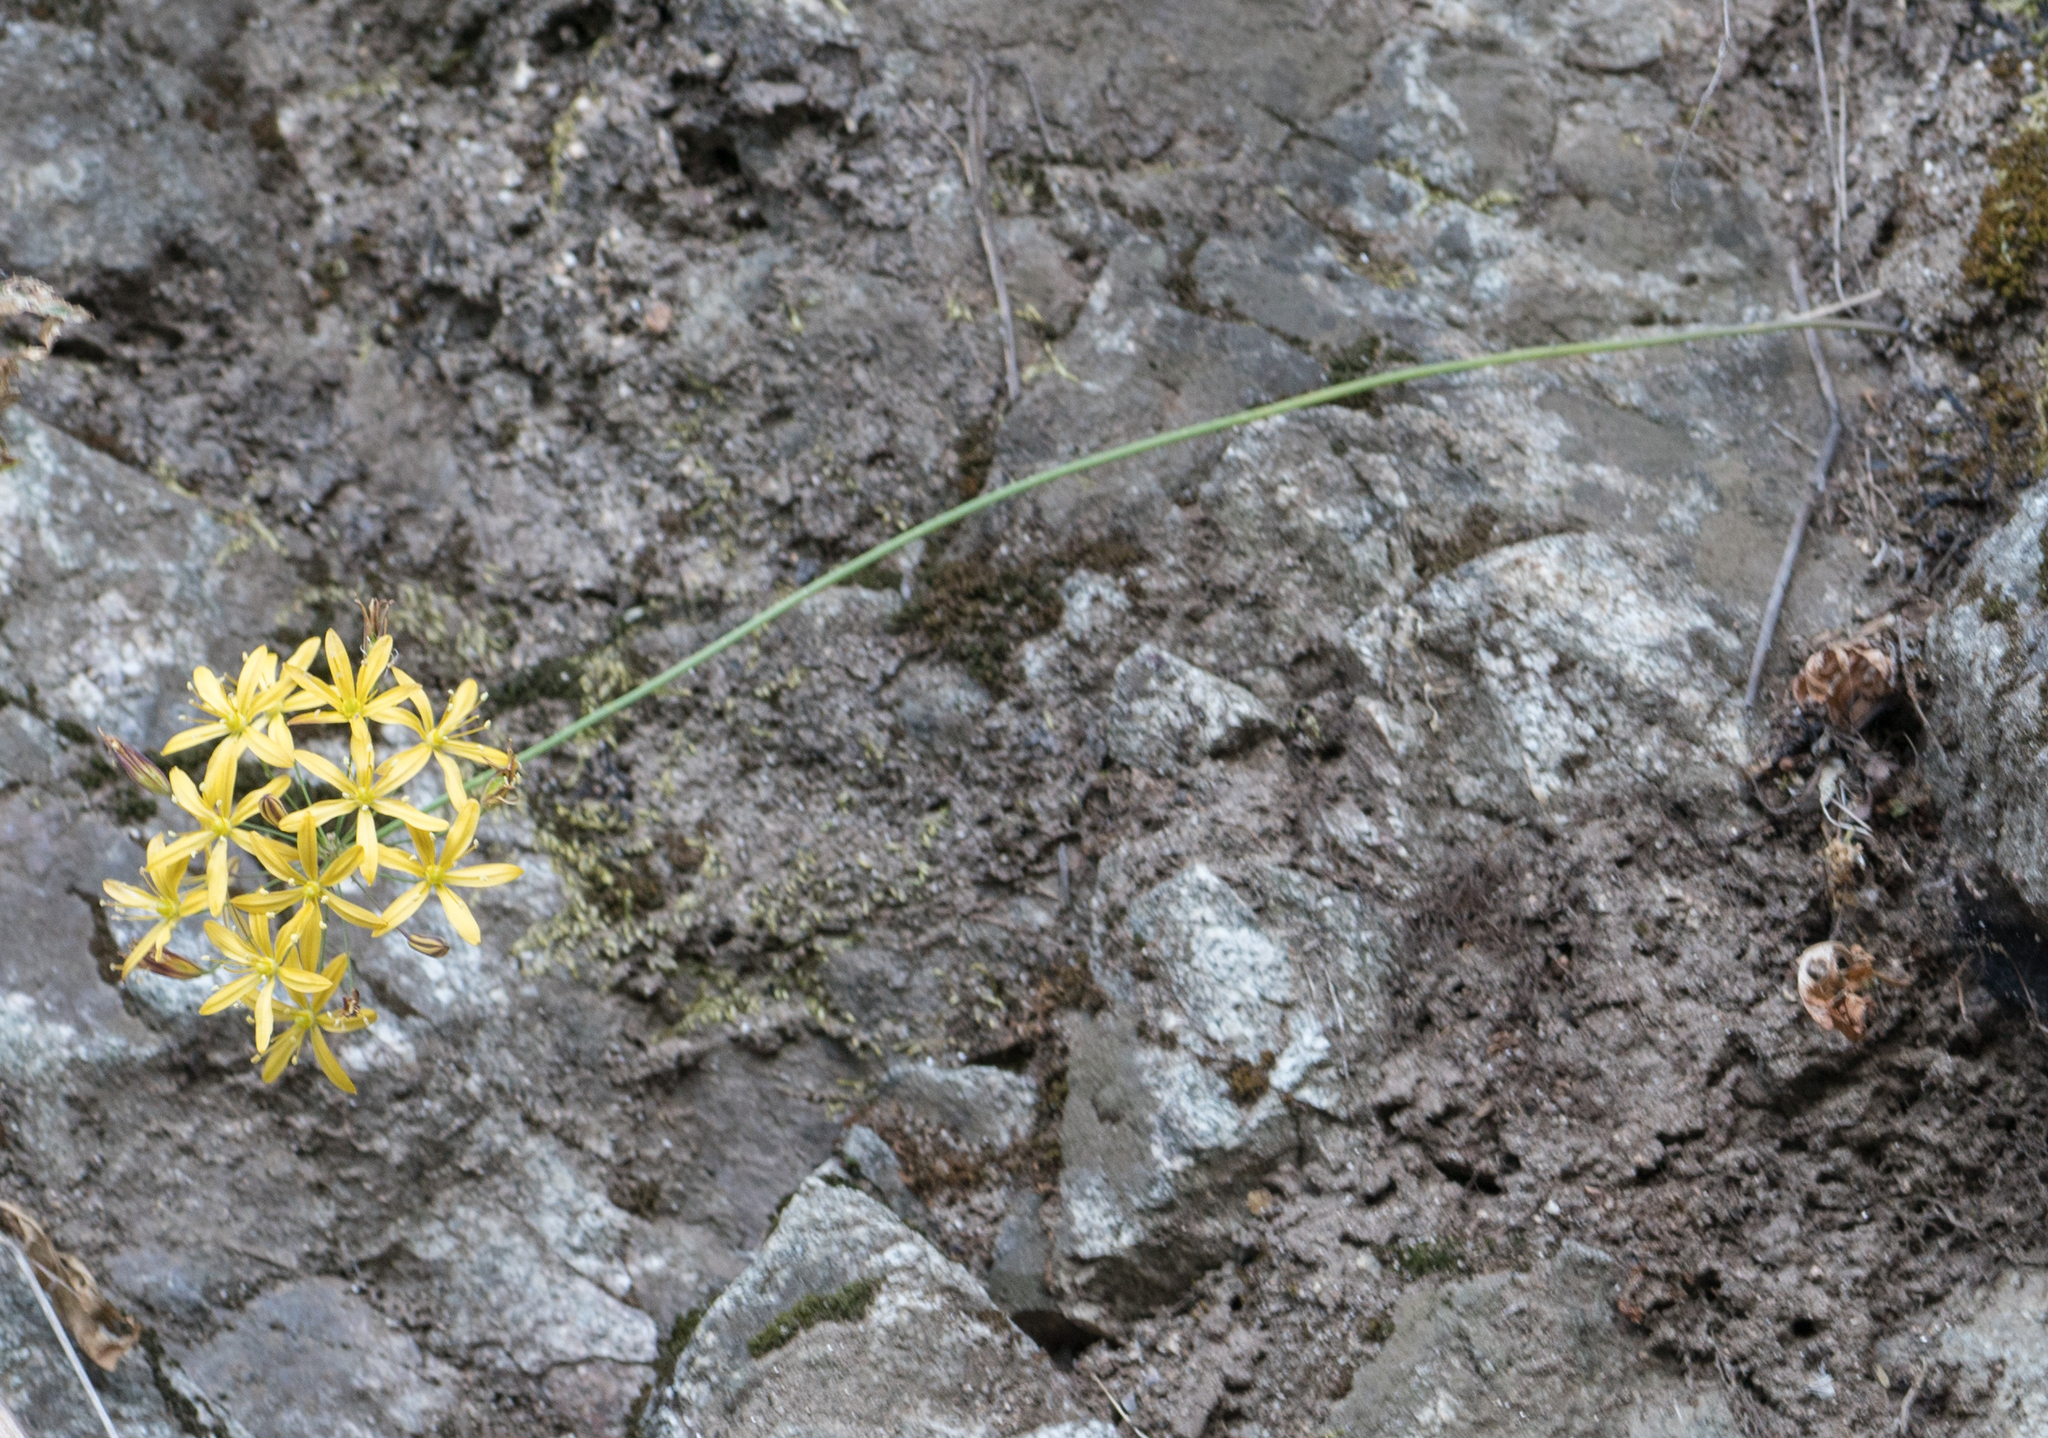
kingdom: Plantae
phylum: Tracheophyta
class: Liliopsida
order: Asparagales
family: Asparagaceae
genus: Bloomeria
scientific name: Bloomeria crocea
